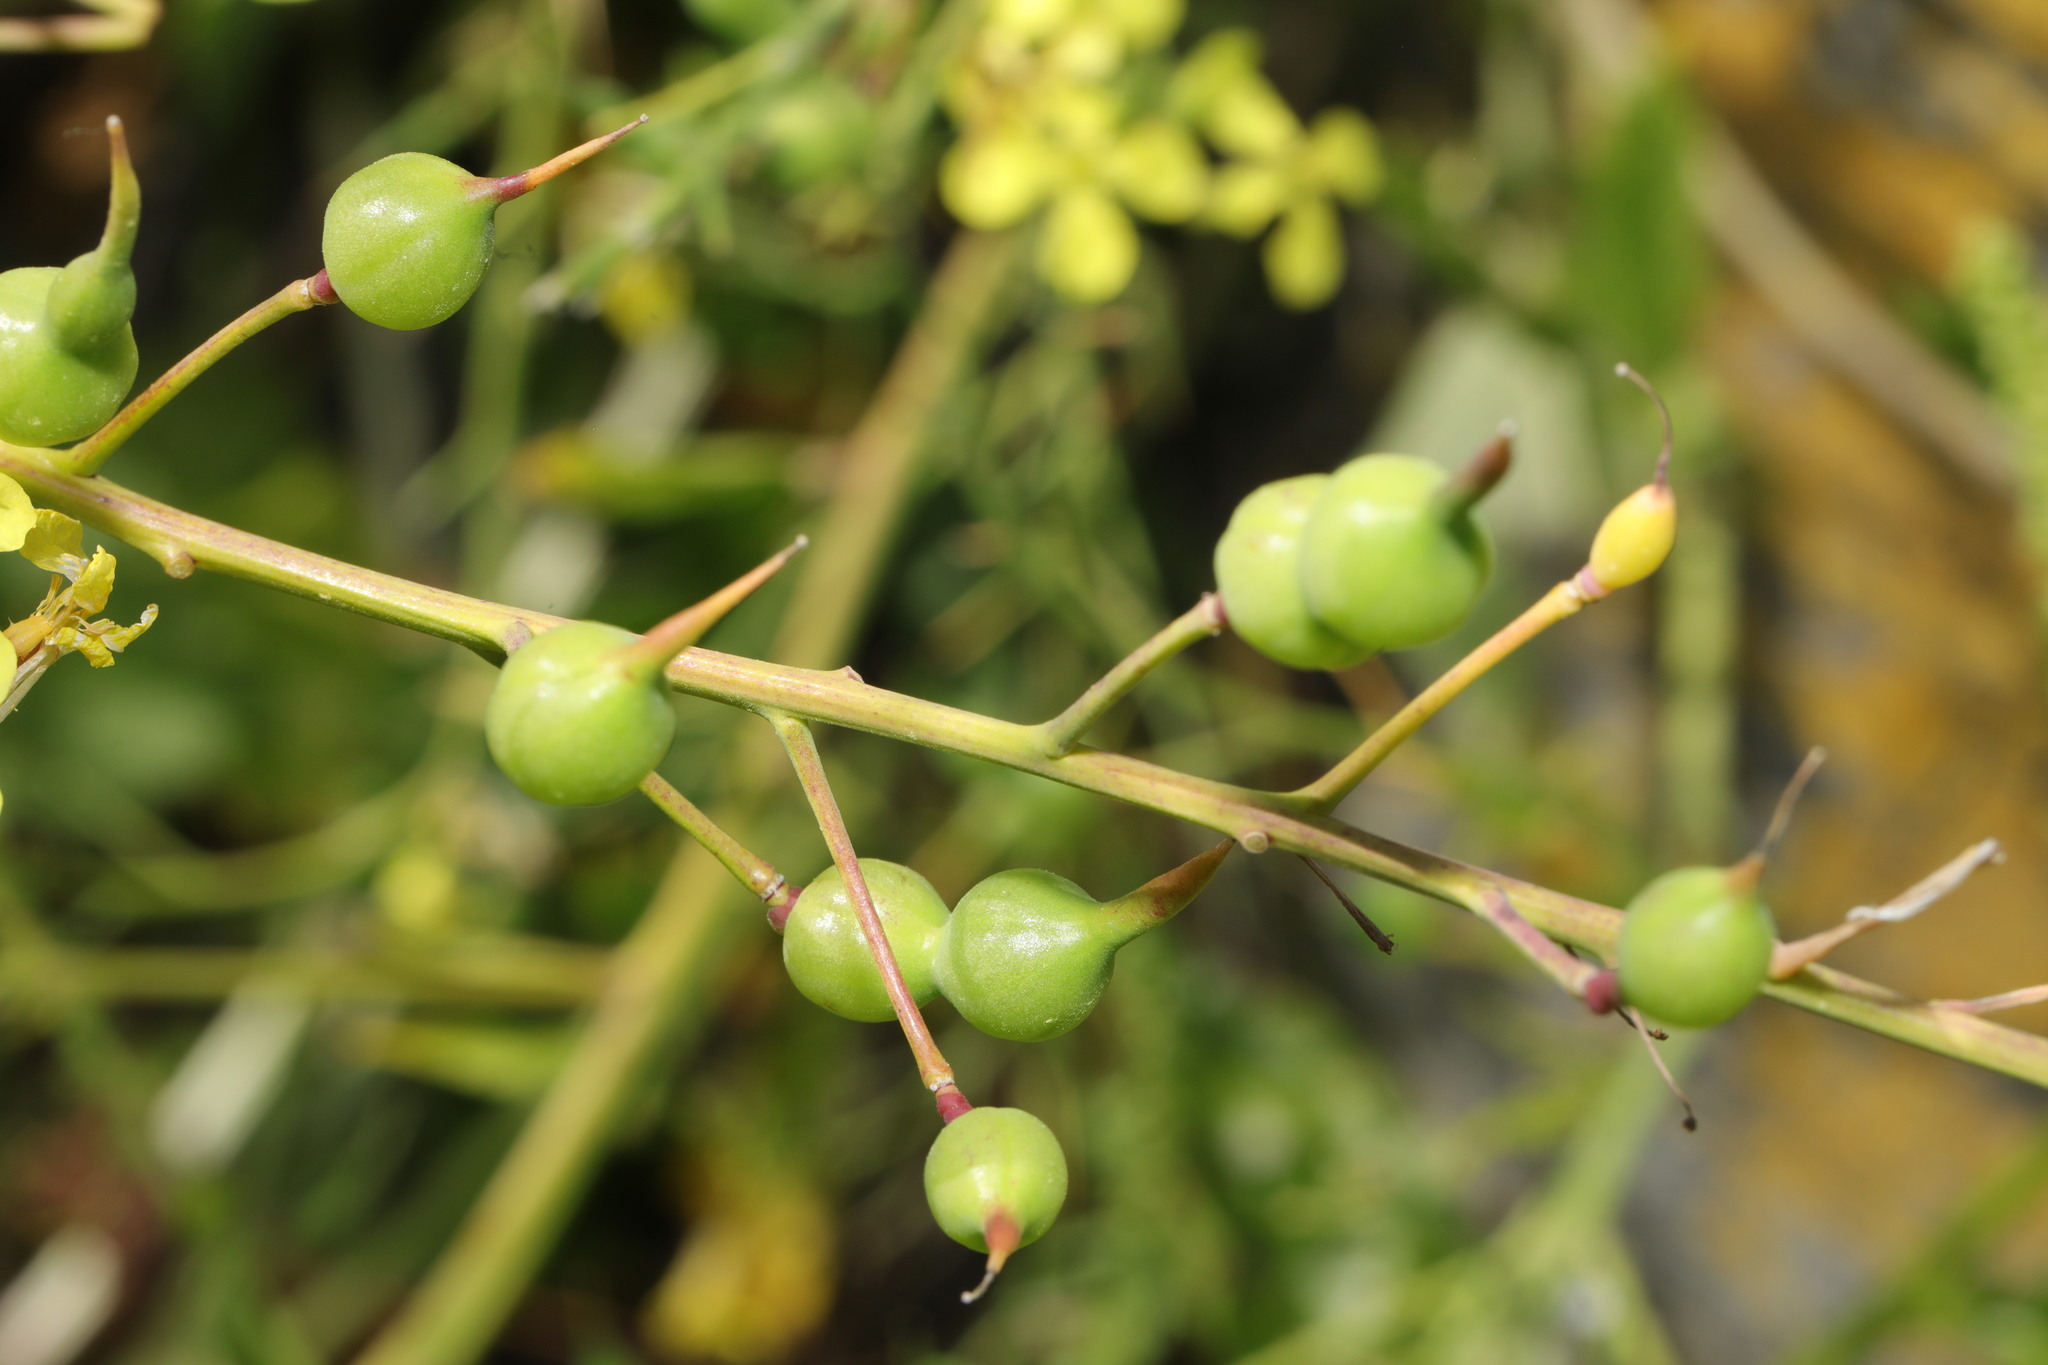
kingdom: Plantae
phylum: Tracheophyta
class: Magnoliopsida
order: Brassicales
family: Brassicaceae
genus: Raphanus
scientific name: Raphanus raphanistrum
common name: Wild radish
